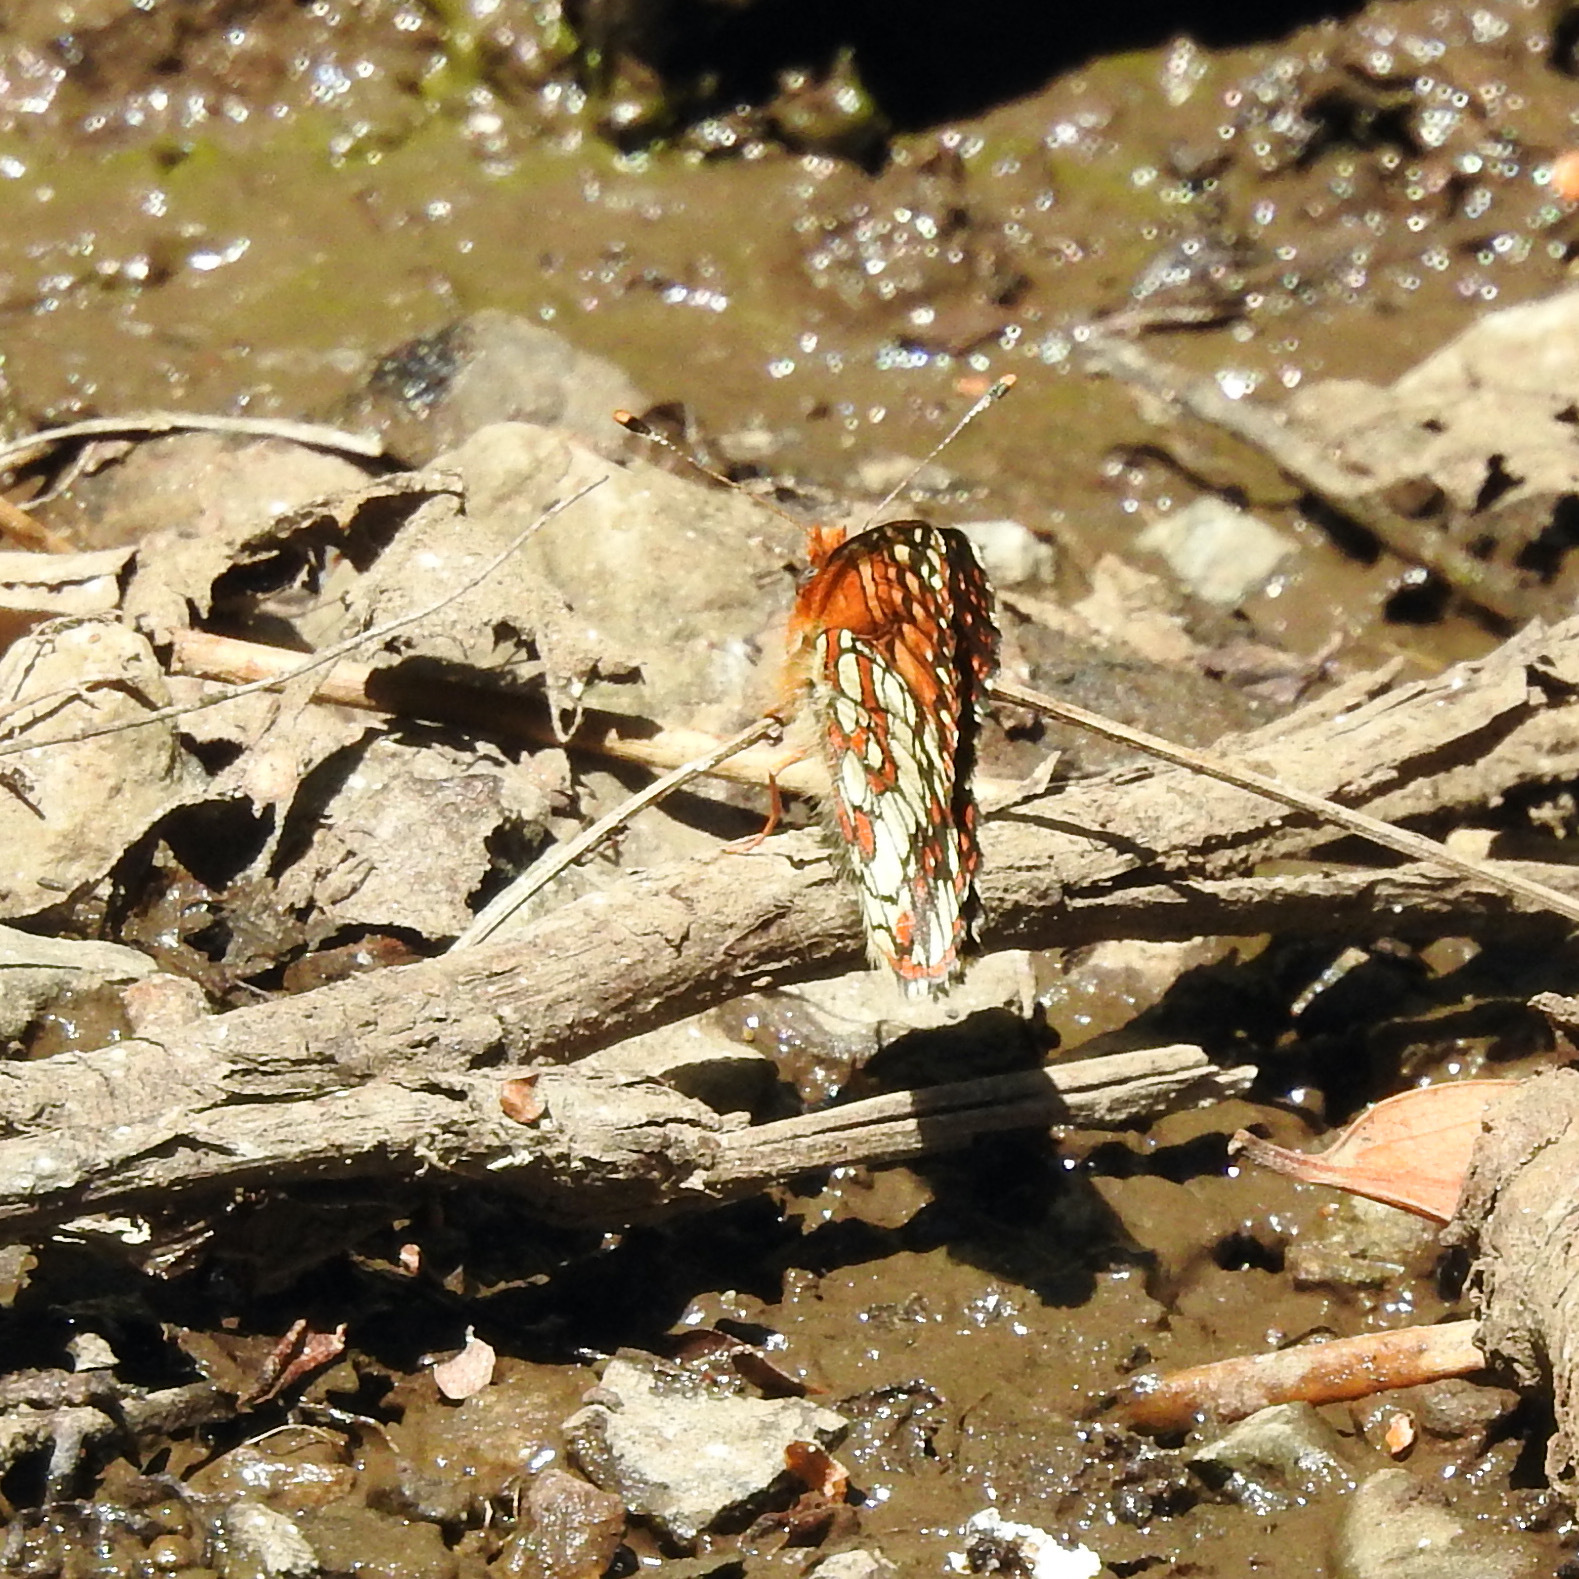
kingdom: Animalia
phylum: Arthropoda
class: Insecta
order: Lepidoptera
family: Nymphalidae
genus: Chlosyne
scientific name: Chlosyne palla
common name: Northern checkerspot
